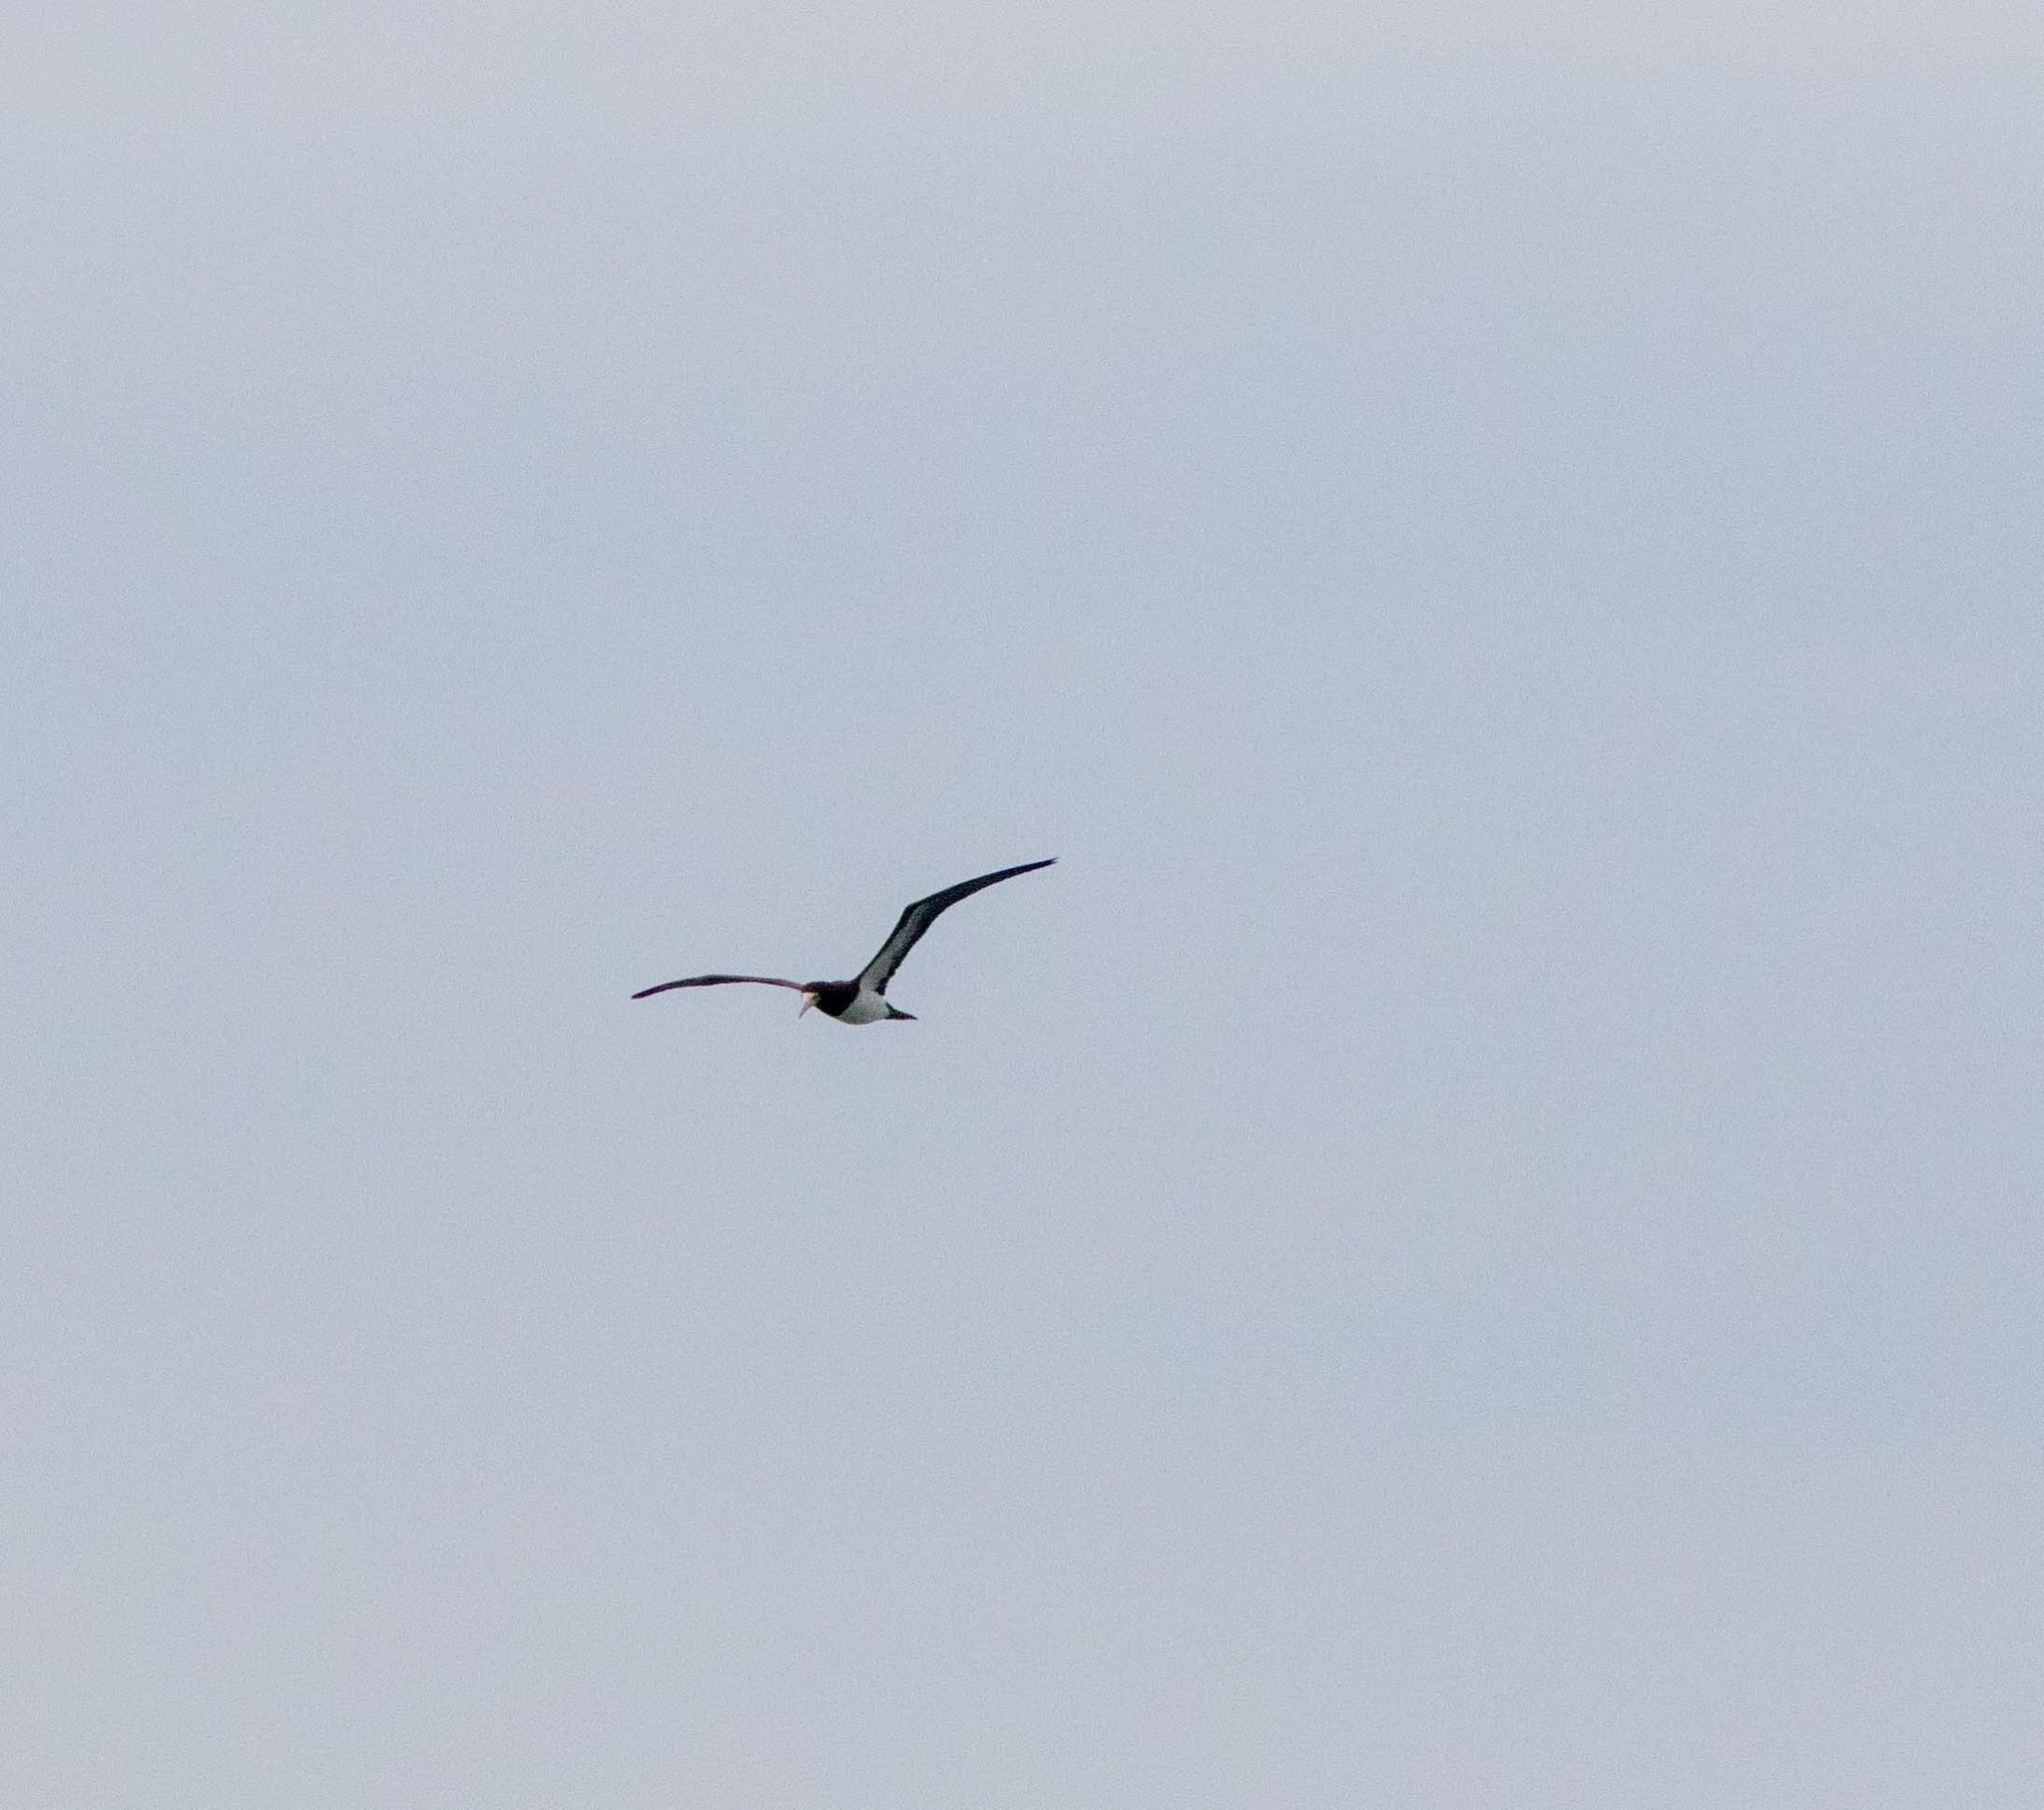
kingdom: Animalia
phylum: Chordata
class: Aves
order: Suliformes
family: Sulidae
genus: Sula
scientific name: Sula leucogaster
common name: Brown booby
